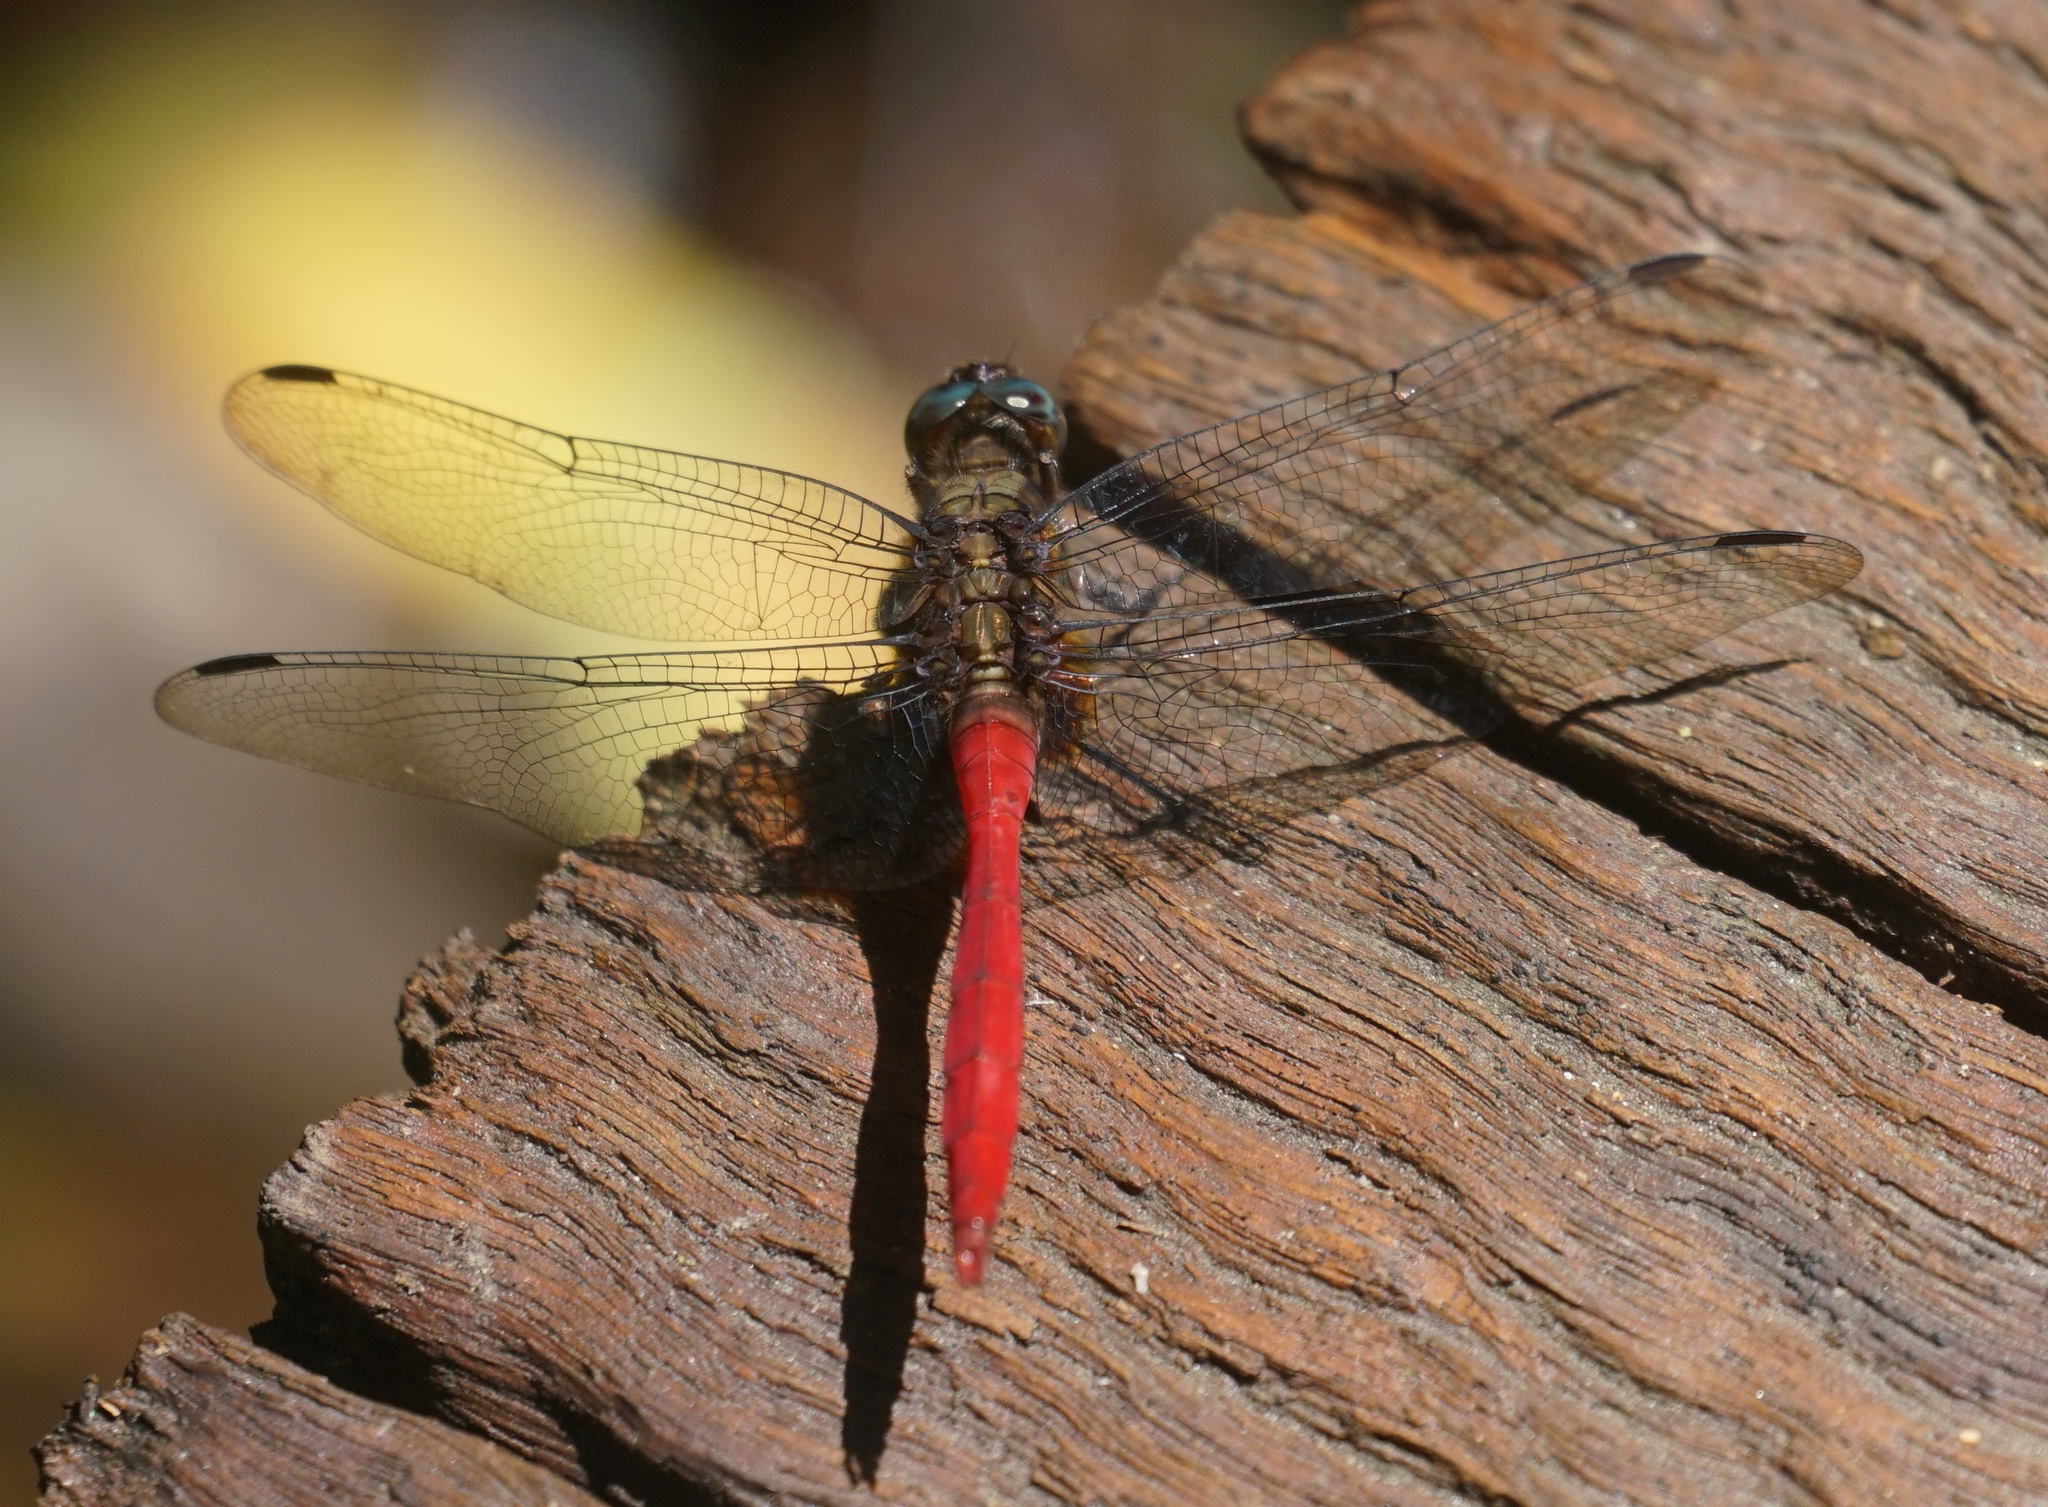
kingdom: Animalia
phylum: Arthropoda
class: Insecta
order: Odonata
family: Libellulidae
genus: Orthetrum
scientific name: Orthetrum villosovittatum
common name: Firery skimmer
